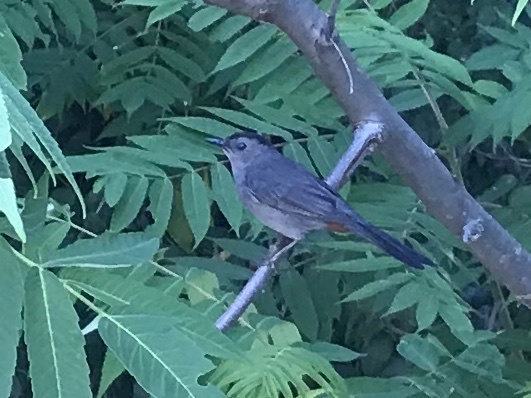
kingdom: Animalia
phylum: Chordata
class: Aves
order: Passeriformes
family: Mimidae
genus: Dumetella
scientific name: Dumetella carolinensis
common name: Gray catbird
